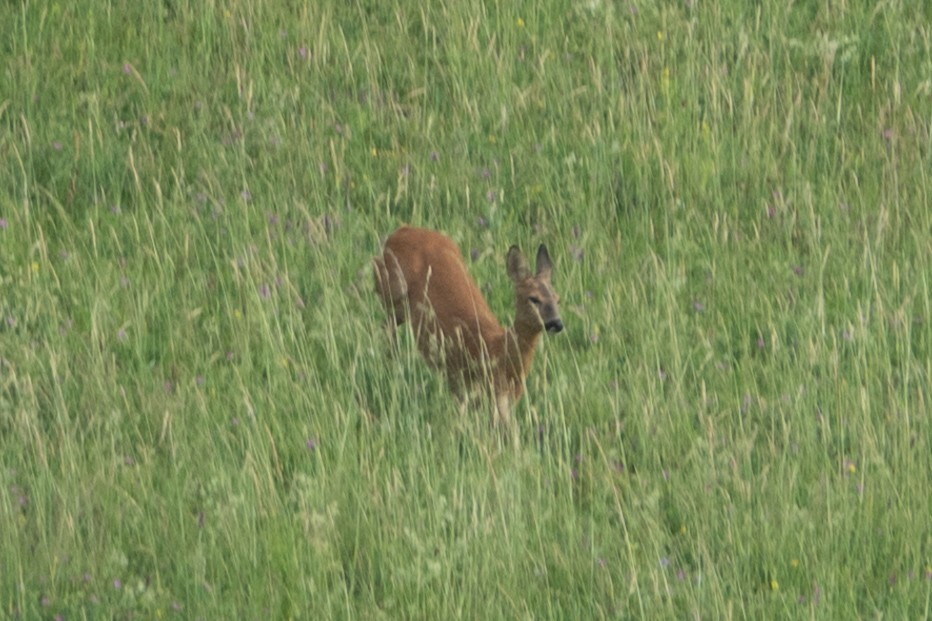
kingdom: Animalia
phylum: Chordata
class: Mammalia
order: Artiodactyla
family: Cervidae
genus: Capreolus
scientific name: Capreolus capreolus
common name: Western roe deer
